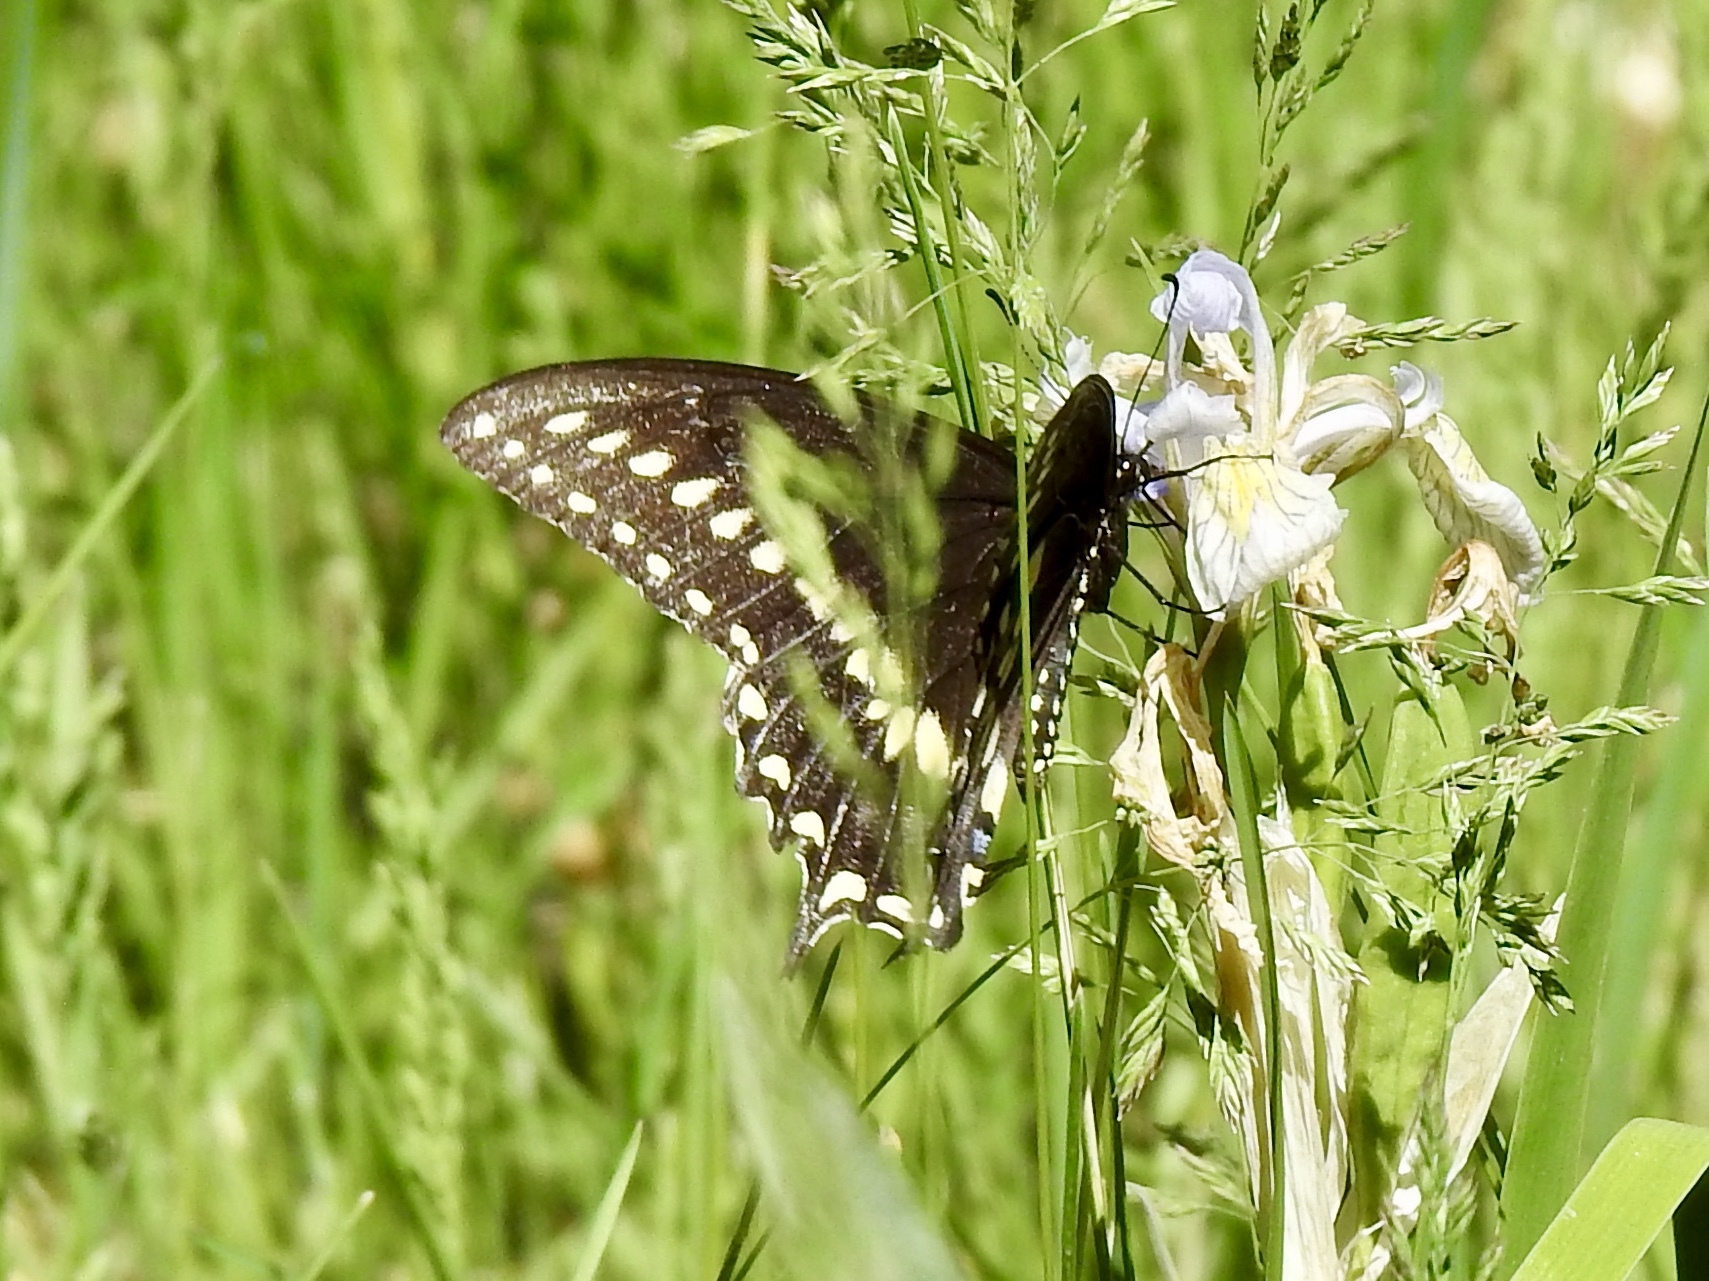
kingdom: Animalia
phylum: Arthropoda
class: Insecta
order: Lepidoptera
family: Papilionidae
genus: Papilio
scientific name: Papilio polyxenes
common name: Black swallowtail
